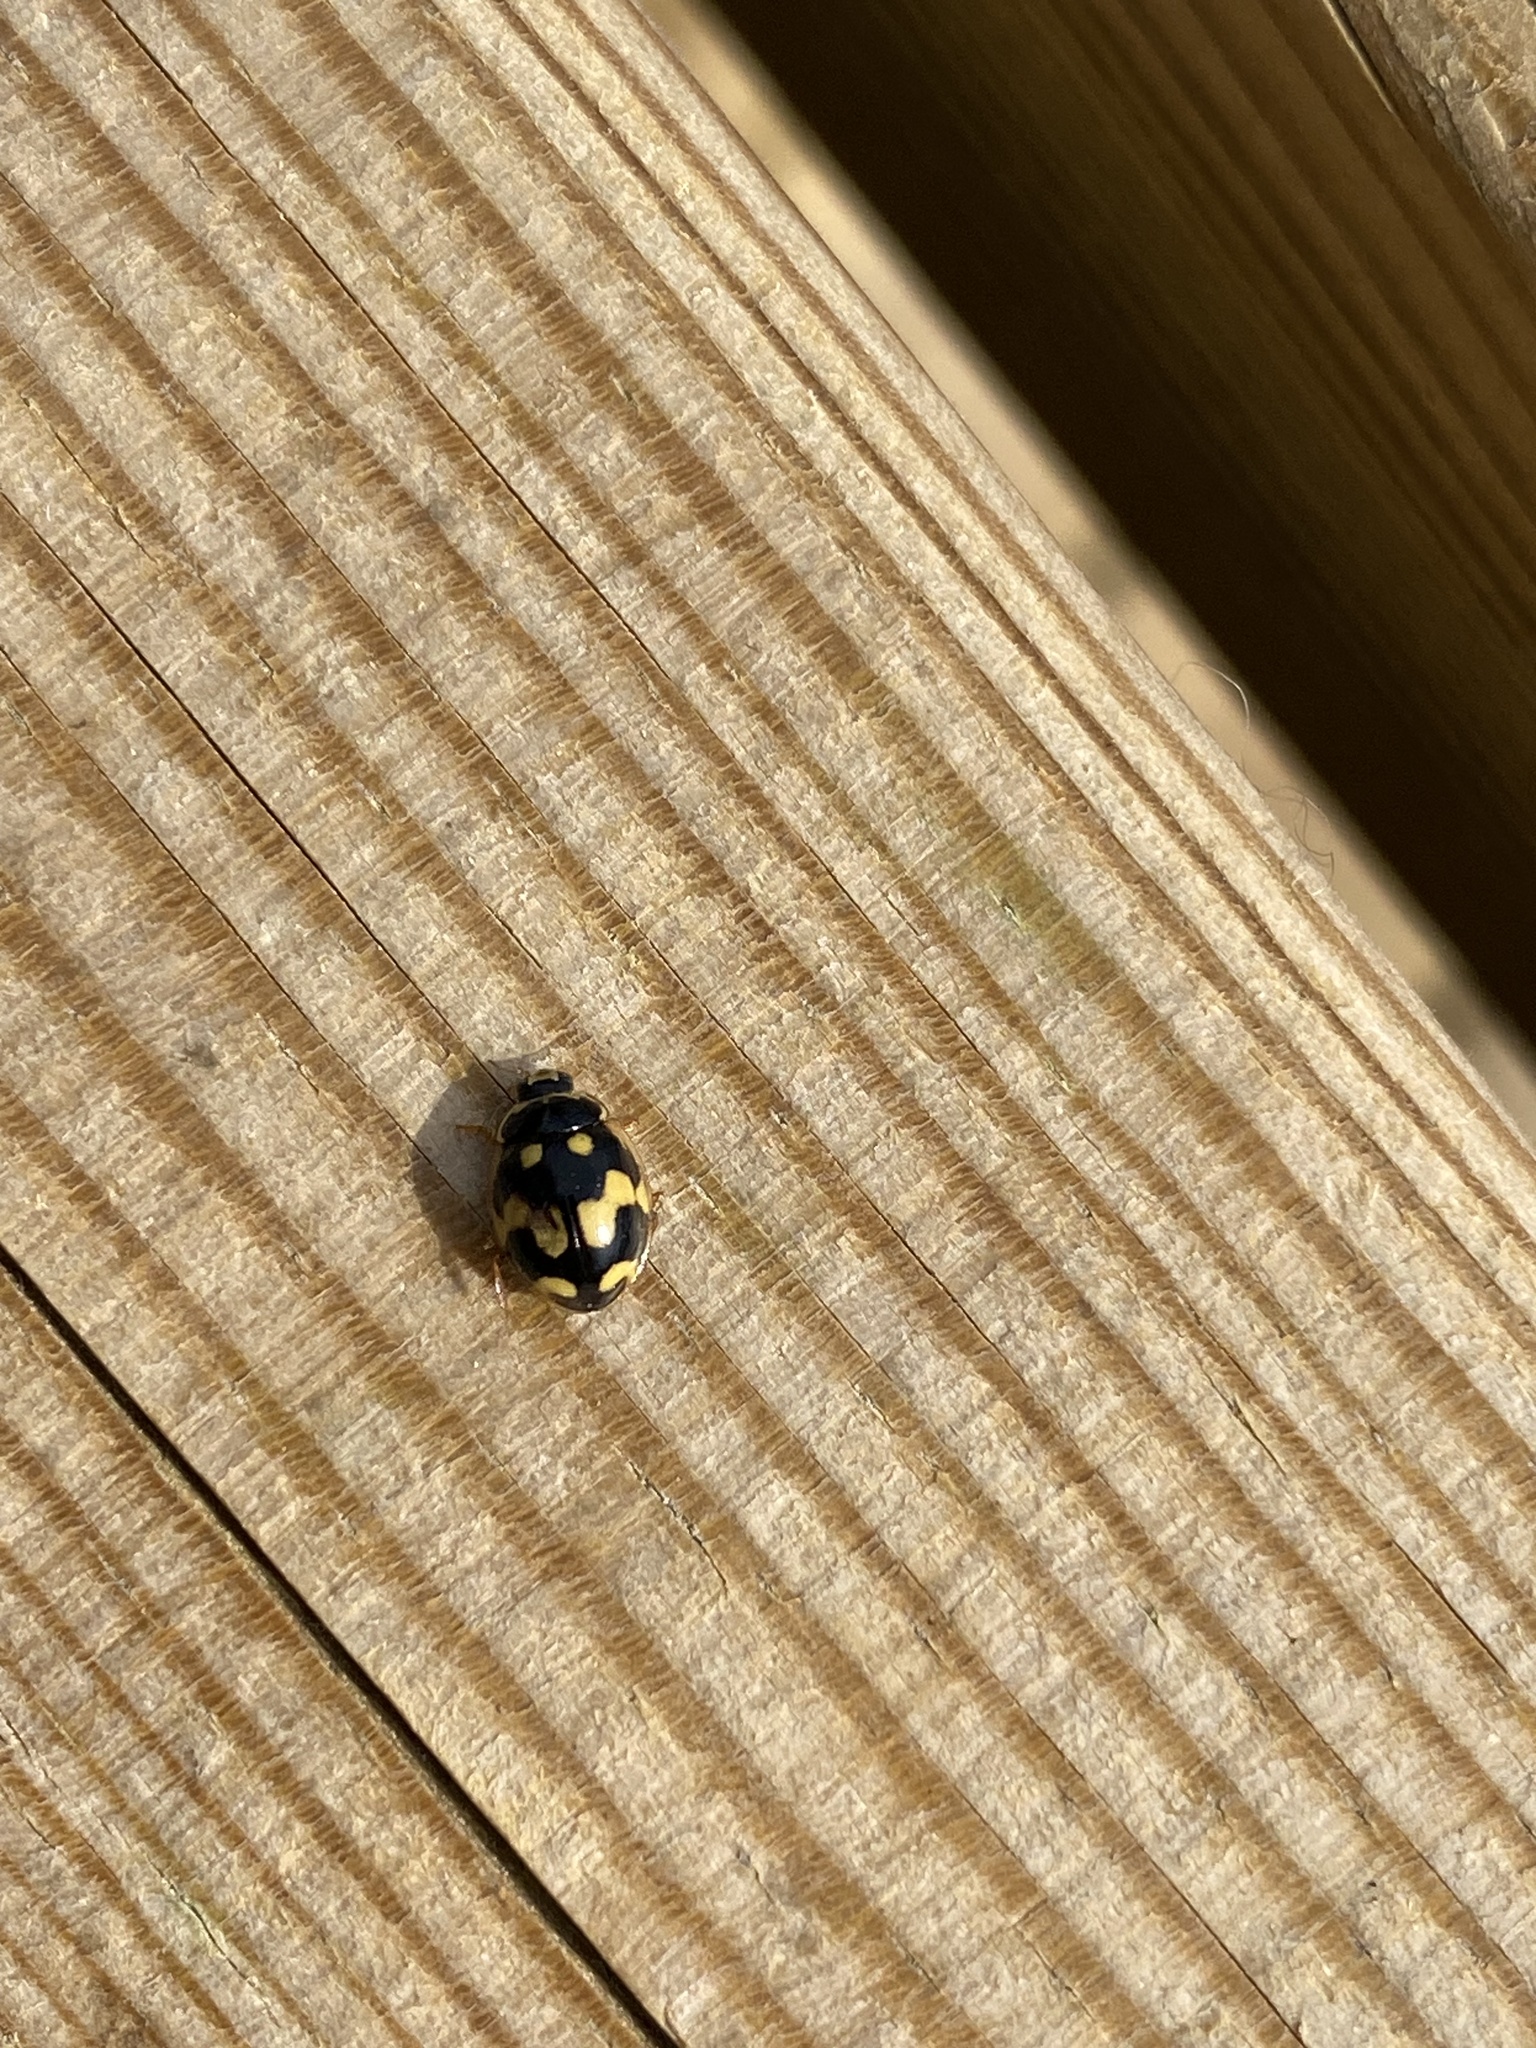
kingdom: Animalia
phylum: Arthropoda
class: Insecta
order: Coleoptera
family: Coccinellidae
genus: Propylaea
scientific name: Propylaea quatuordecimpunctata
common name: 14-spotted ladybird beetle
